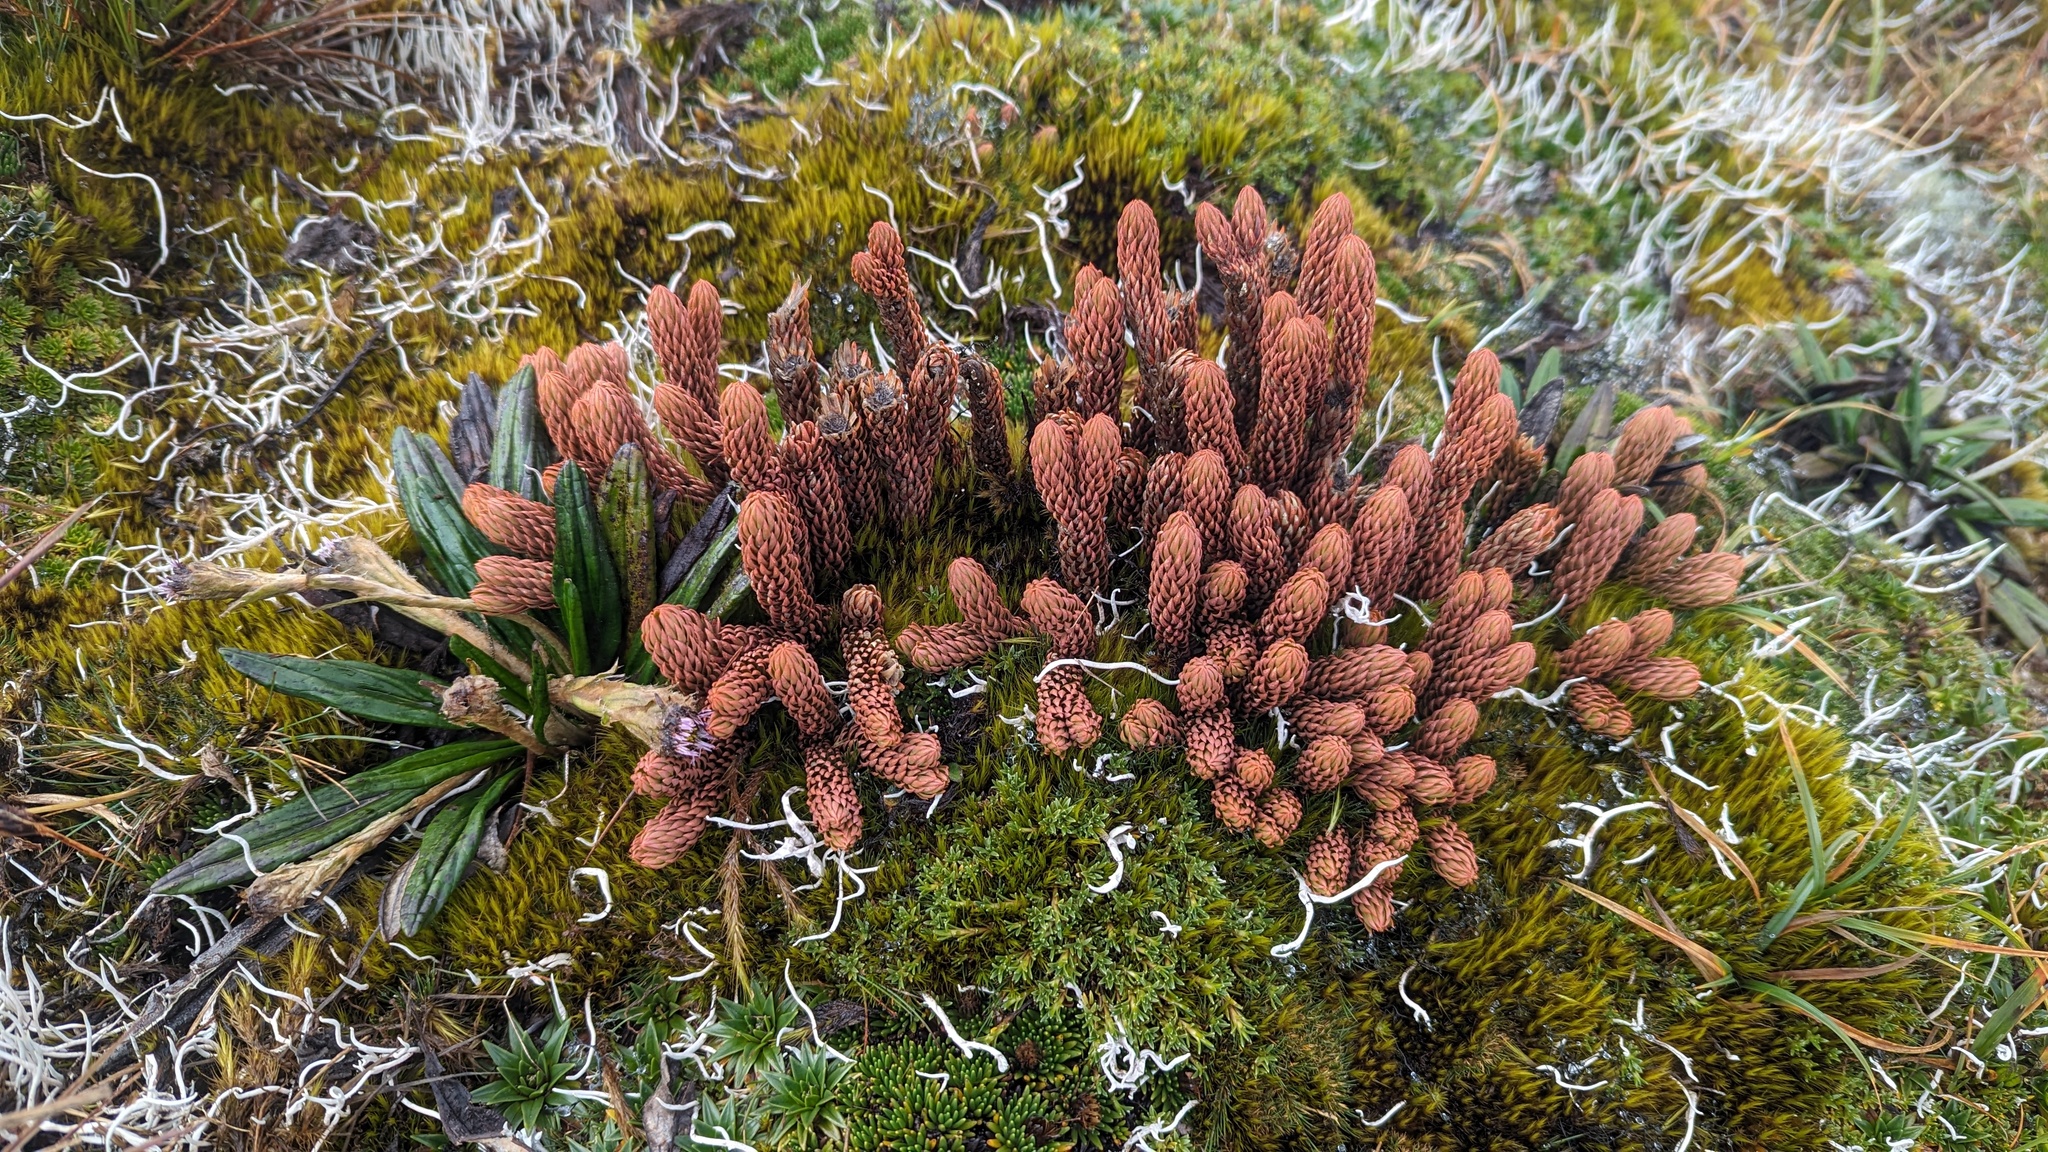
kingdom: Plantae
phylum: Tracheophyta
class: Lycopodiopsida
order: Lycopodiales
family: Lycopodiaceae
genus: Phlegmariurus
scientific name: Phlegmariurus crassus
